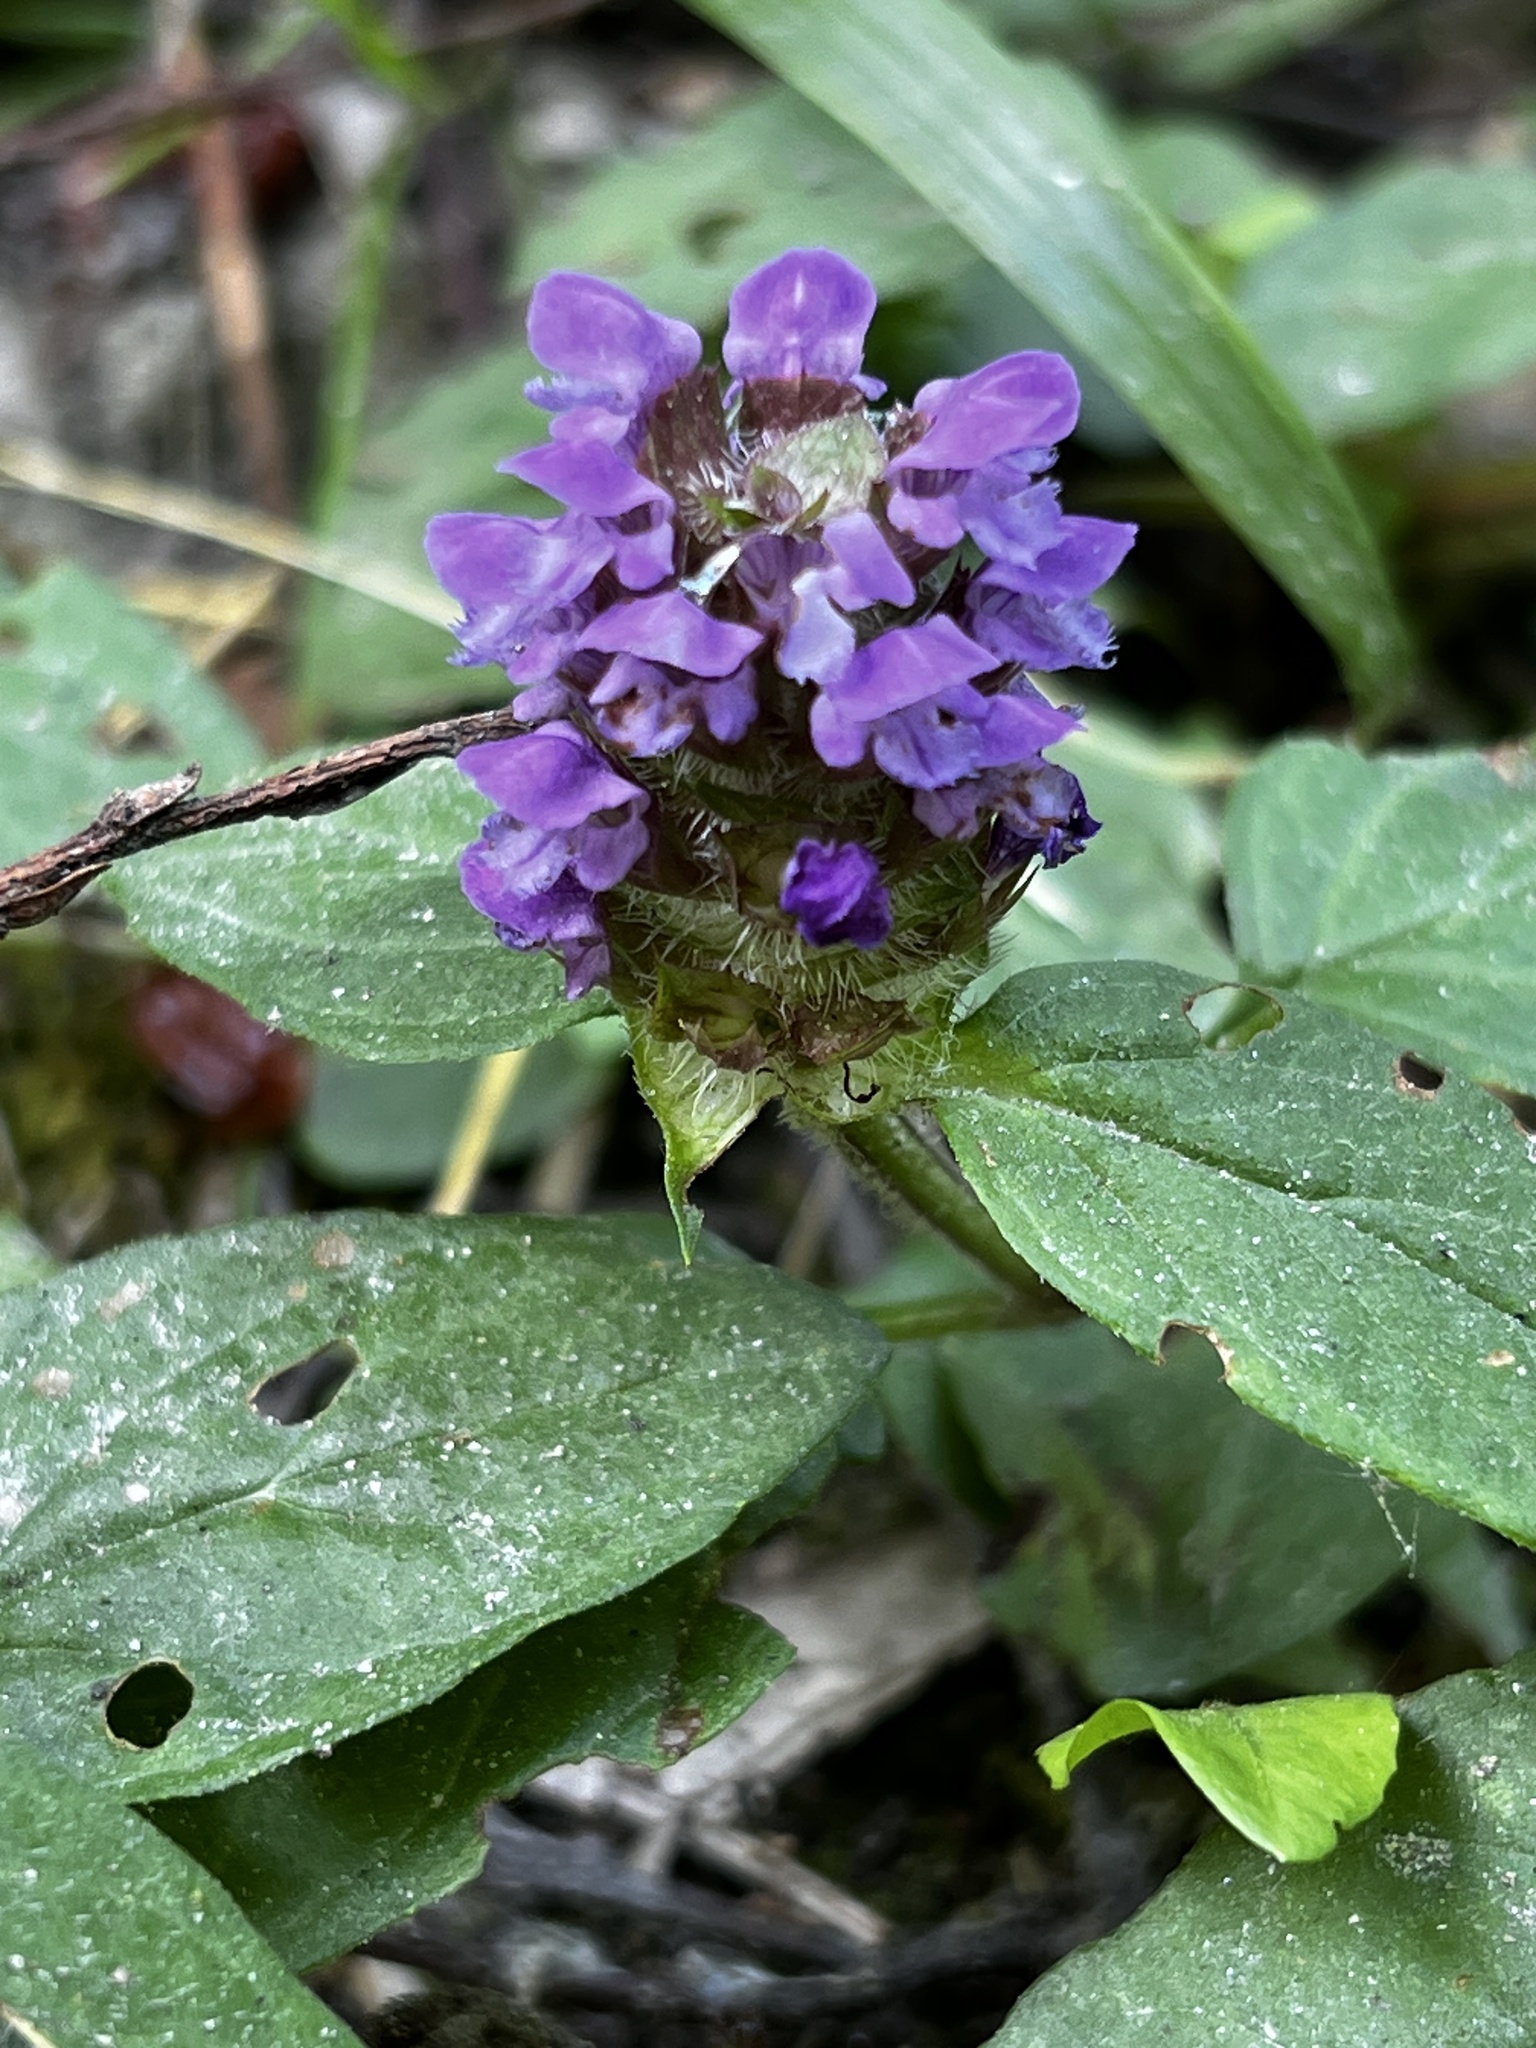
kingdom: Plantae
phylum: Tracheophyta
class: Magnoliopsida
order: Lamiales
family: Lamiaceae
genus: Prunella
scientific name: Prunella vulgaris
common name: Heal-all
